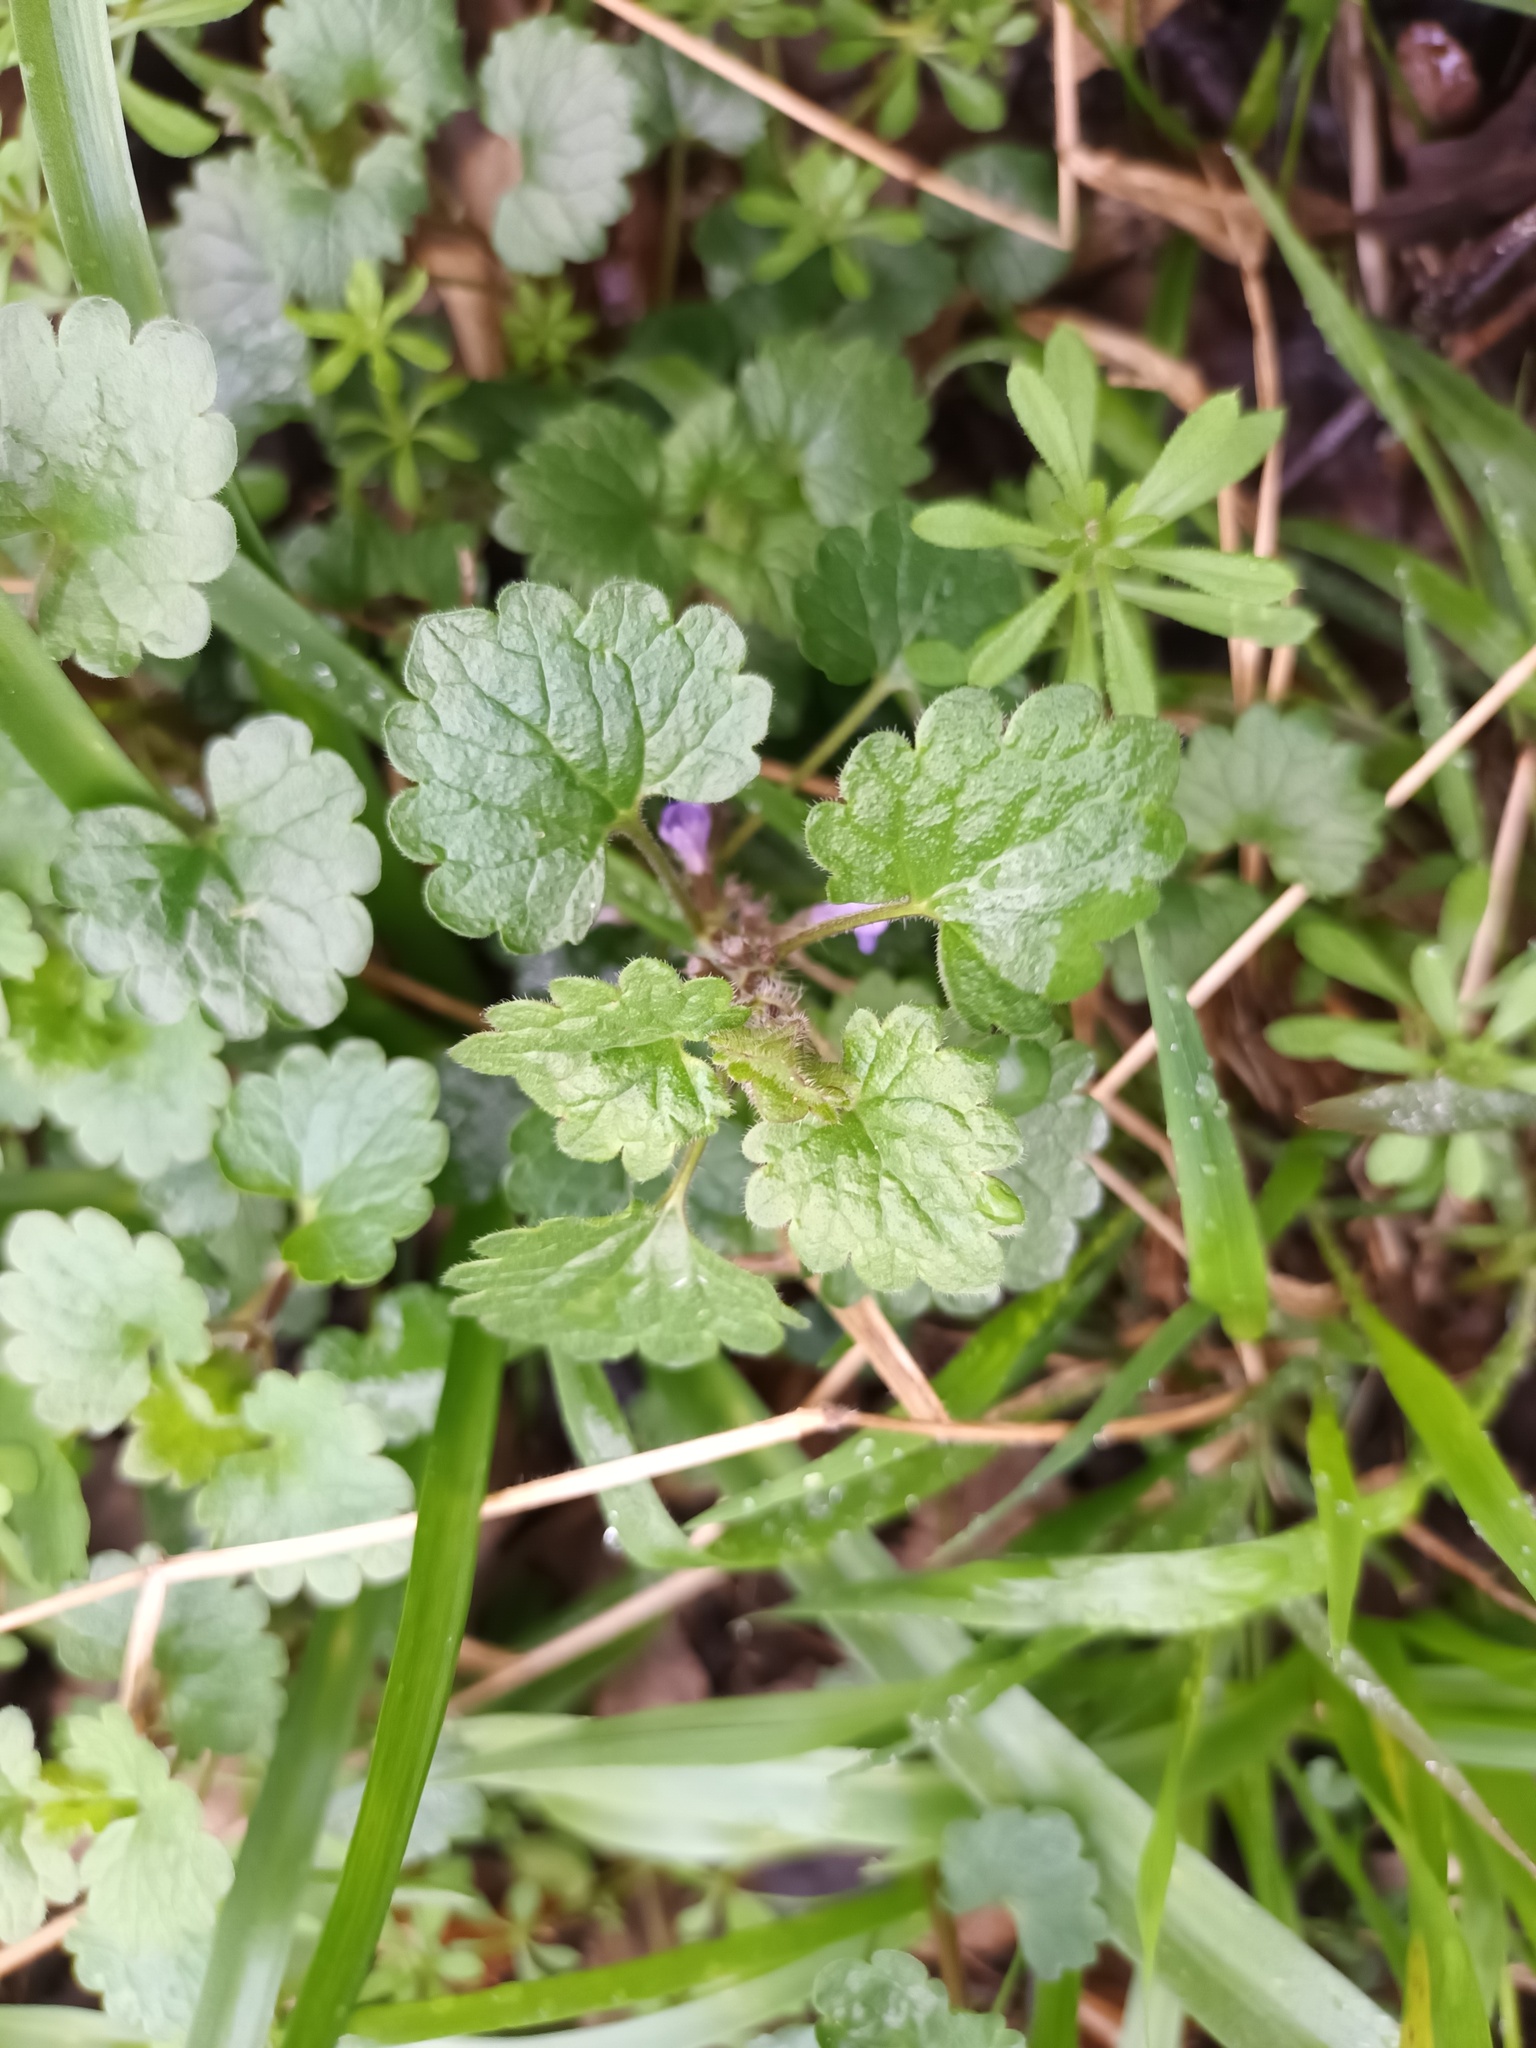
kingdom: Plantae
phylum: Tracheophyta
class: Magnoliopsida
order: Lamiales
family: Lamiaceae
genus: Glechoma
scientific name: Glechoma hederacea
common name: Ground ivy
